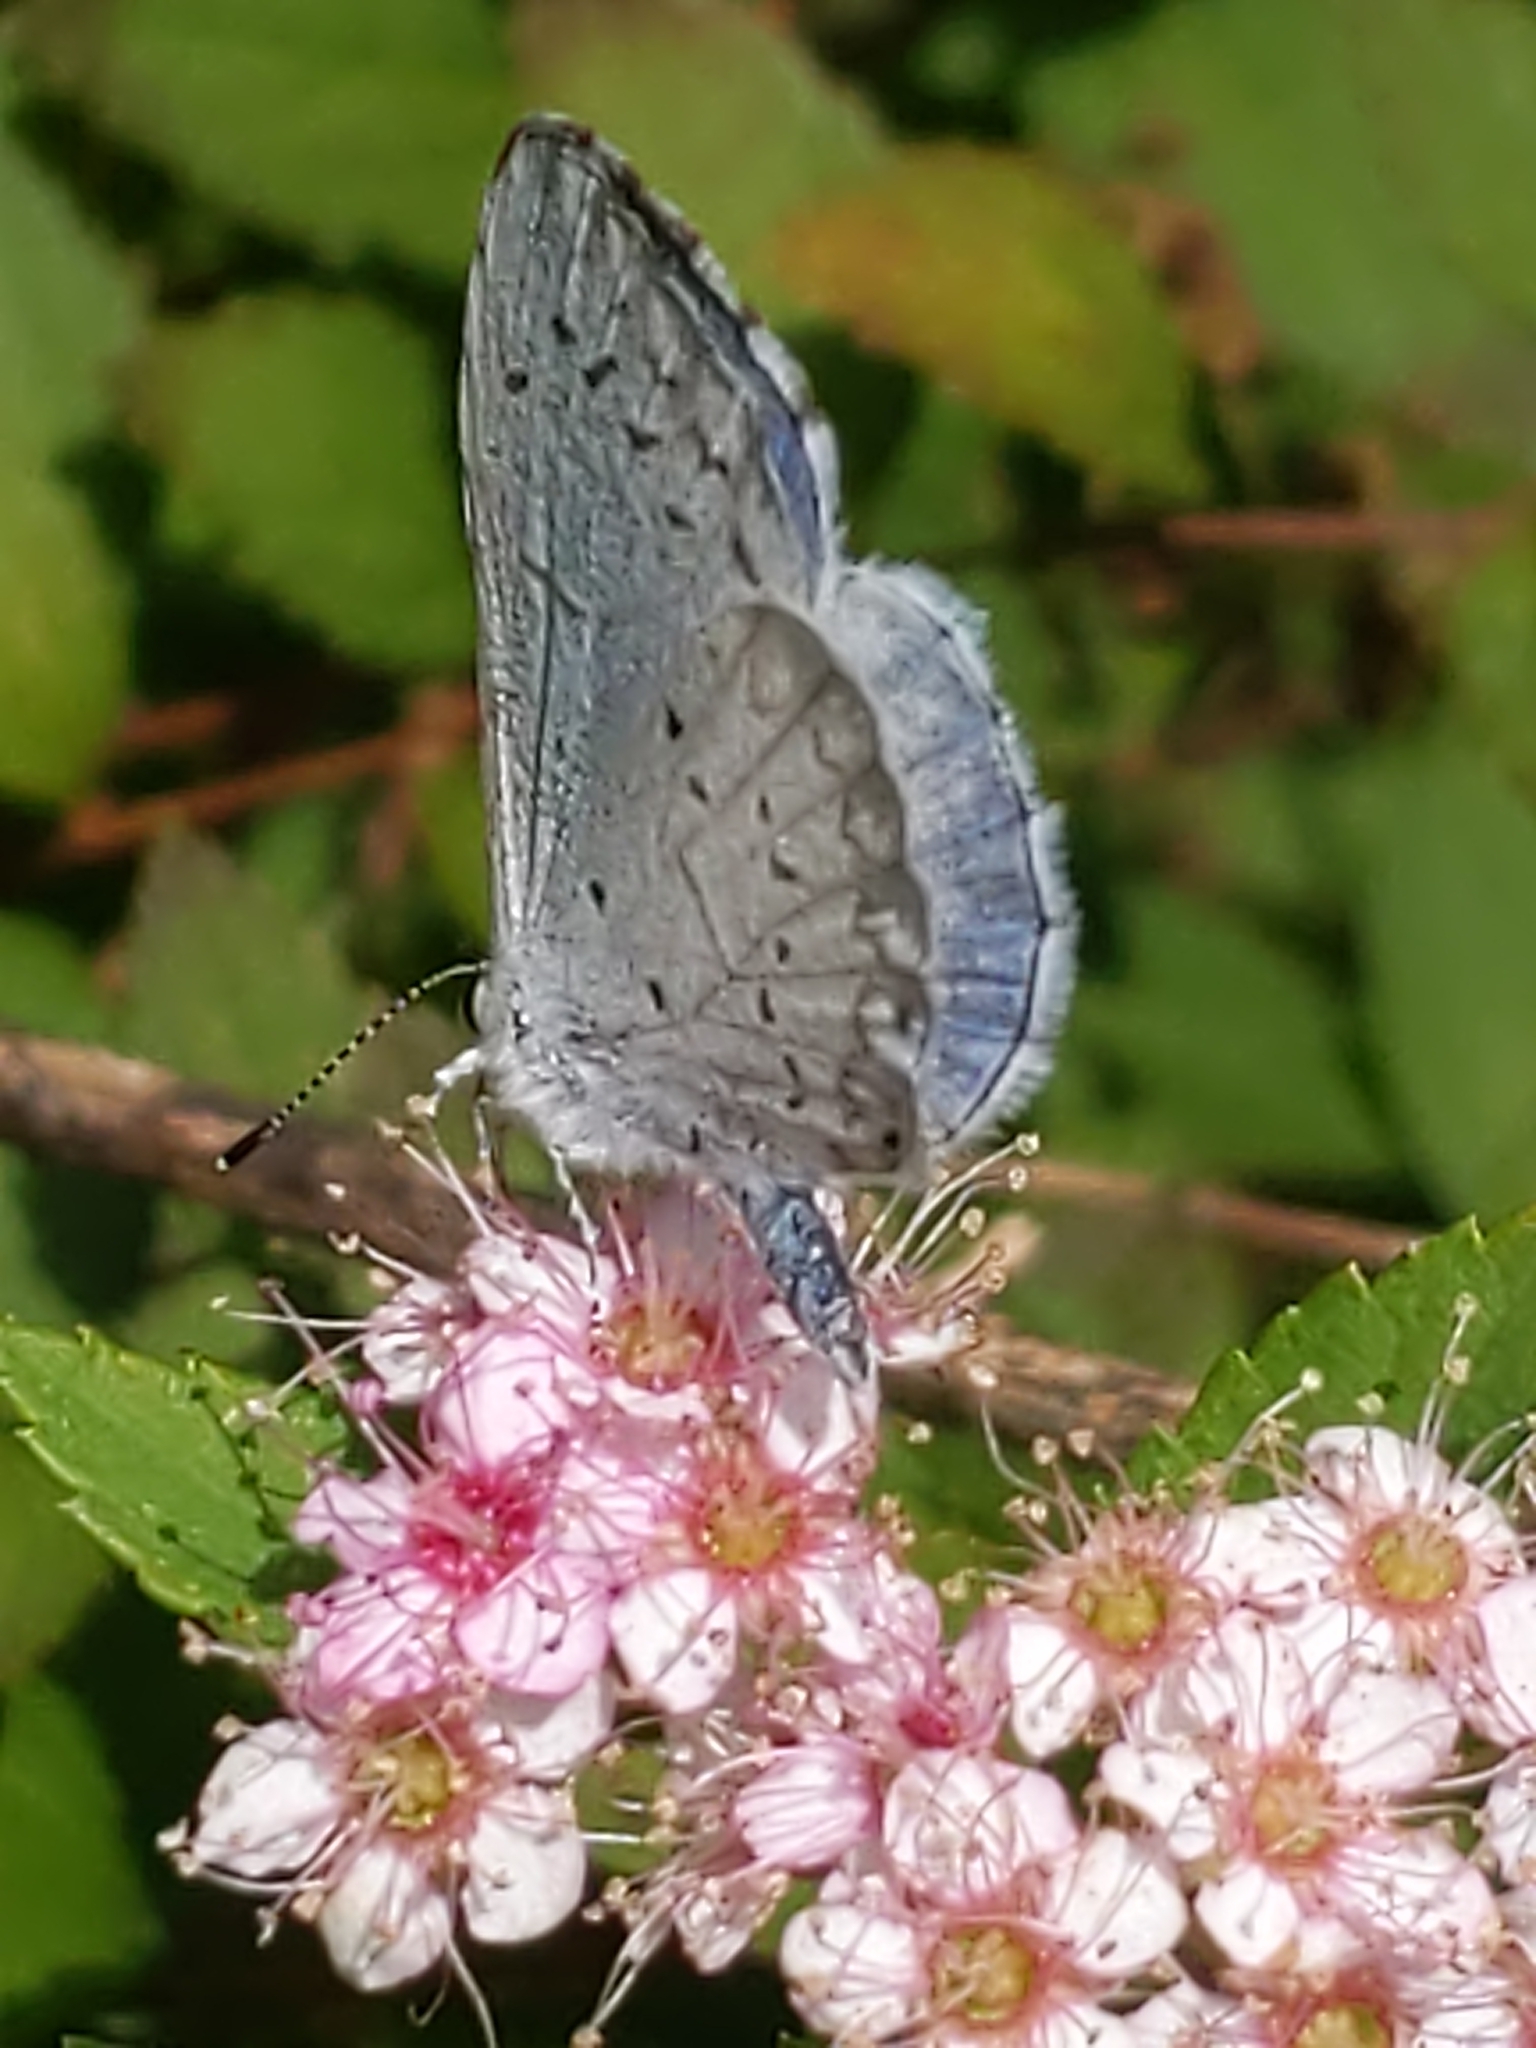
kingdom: Animalia
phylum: Arthropoda
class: Insecta
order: Lepidoptera
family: Lycaenidae
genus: Cyaniris
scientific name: Cyaniris neglecta
